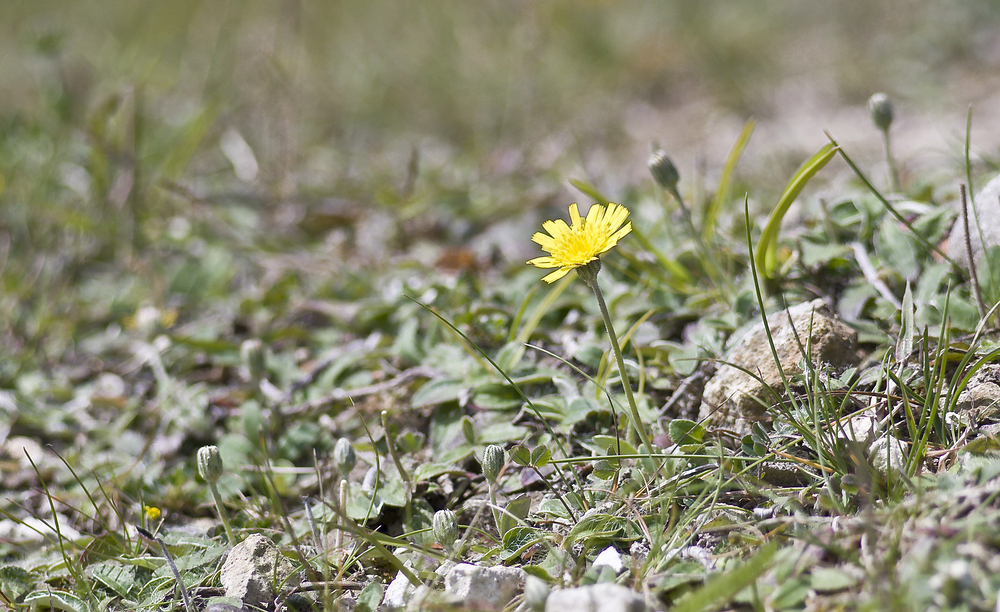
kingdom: Plantae
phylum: Tracheophyta
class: Magnoliopsida
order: Asterales
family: Asteraceae
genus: Pilosella
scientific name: Pilosella officinarum
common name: Mouse-ear hawkweed
